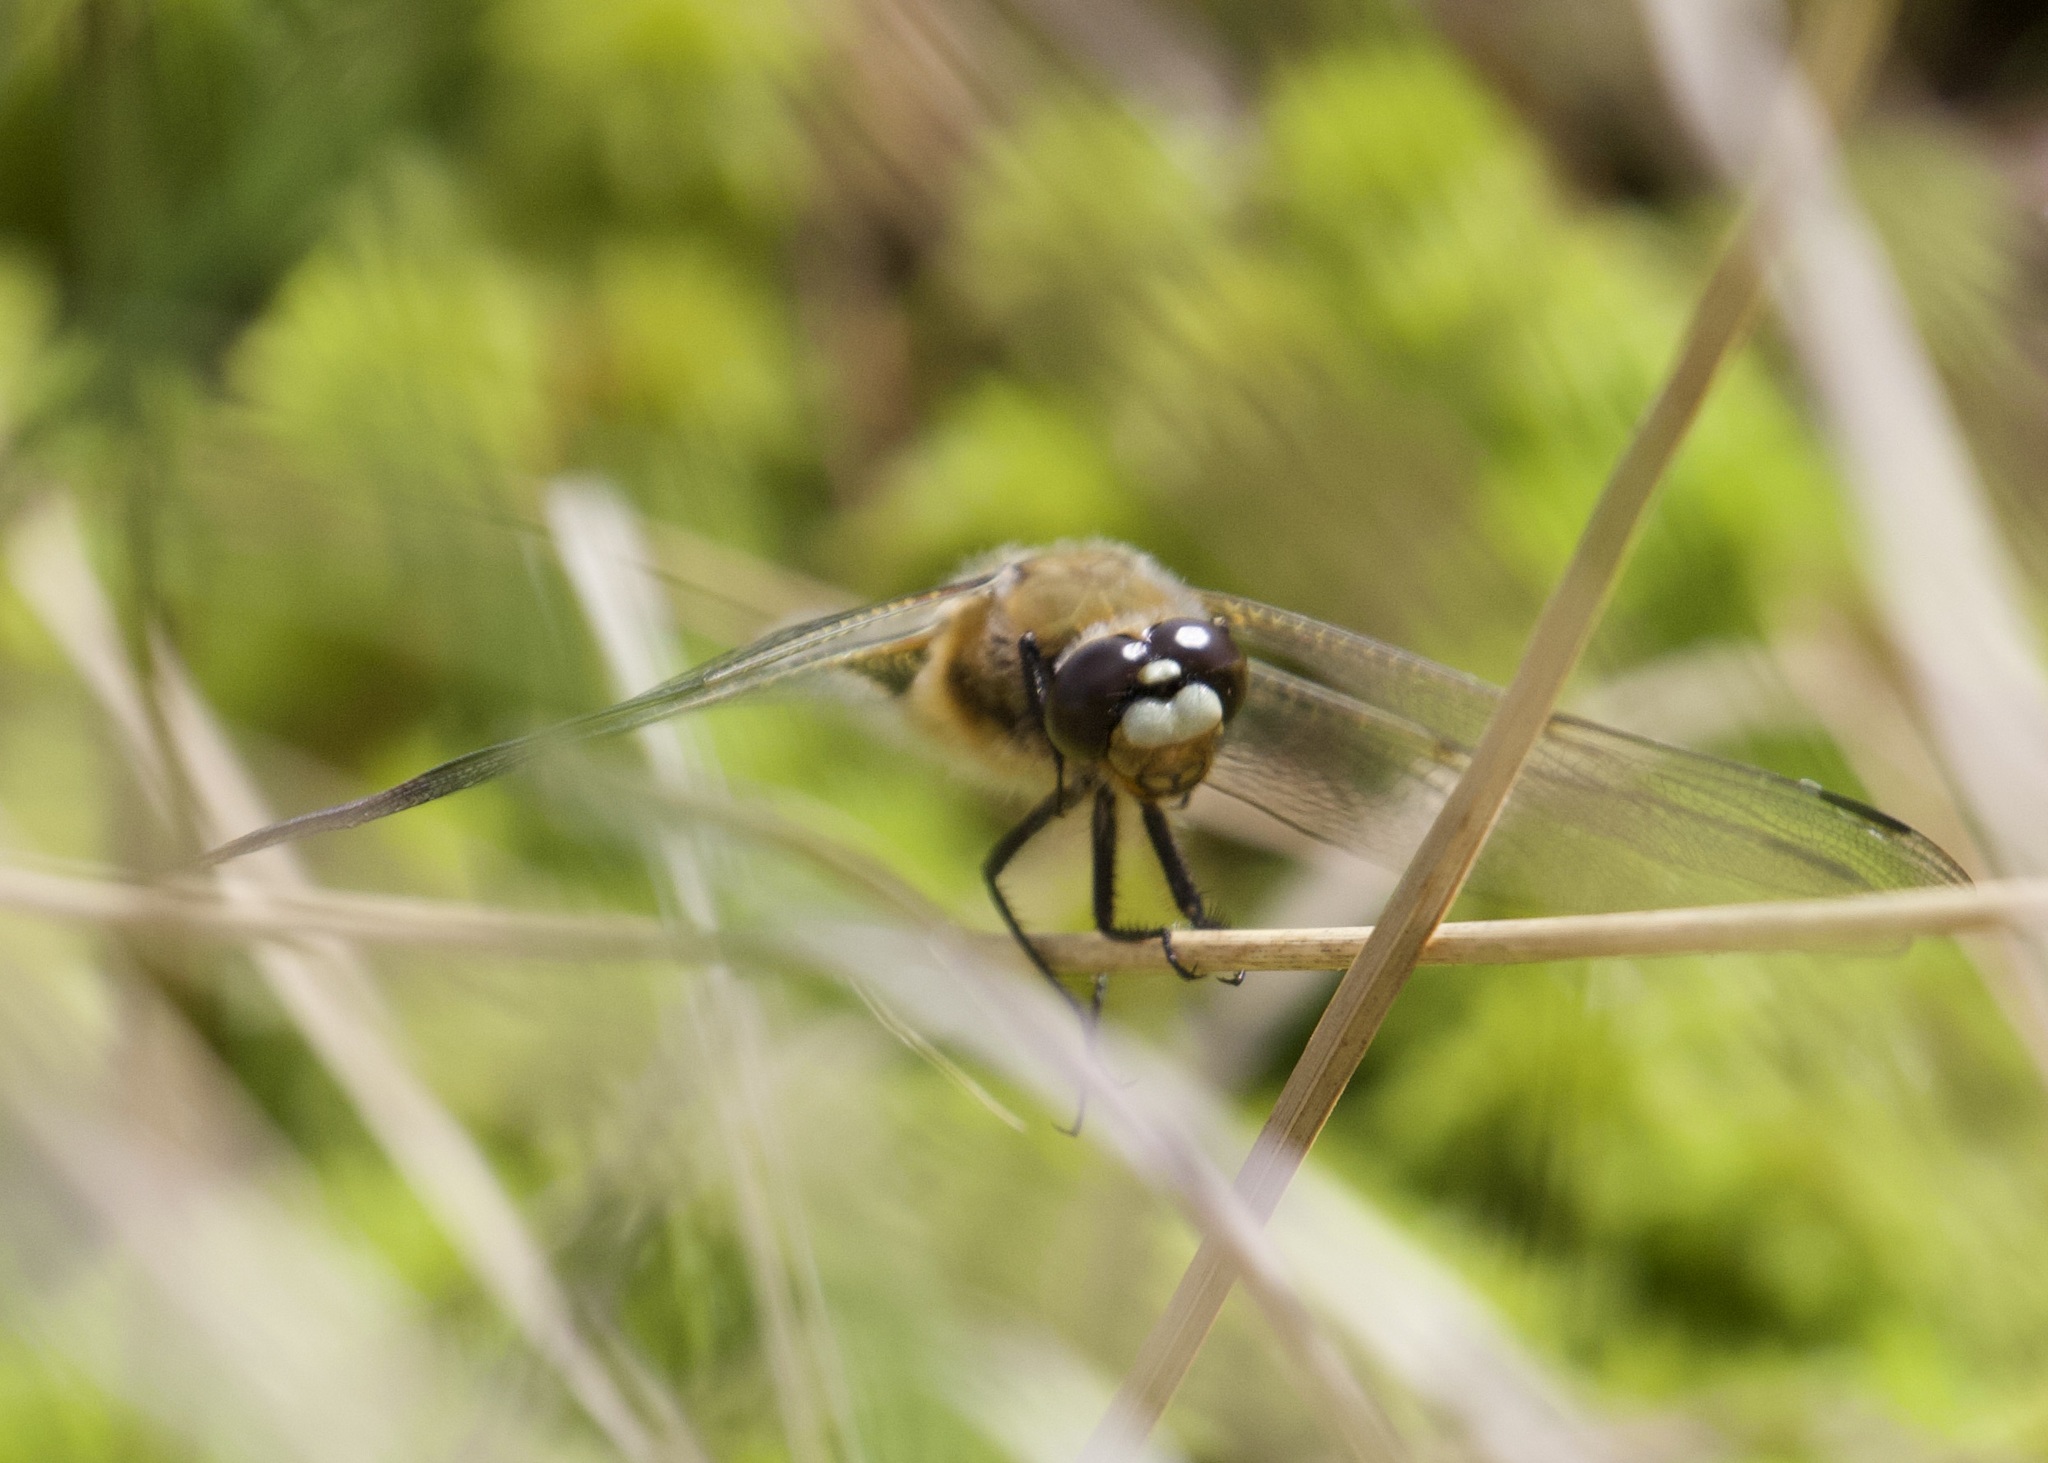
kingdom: Animalia
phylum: Arthropoda
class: Insecta
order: Odonata
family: Libellulidae
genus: Libellula
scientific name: Libellula quadrimaculata
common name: Four-spotted chaser
